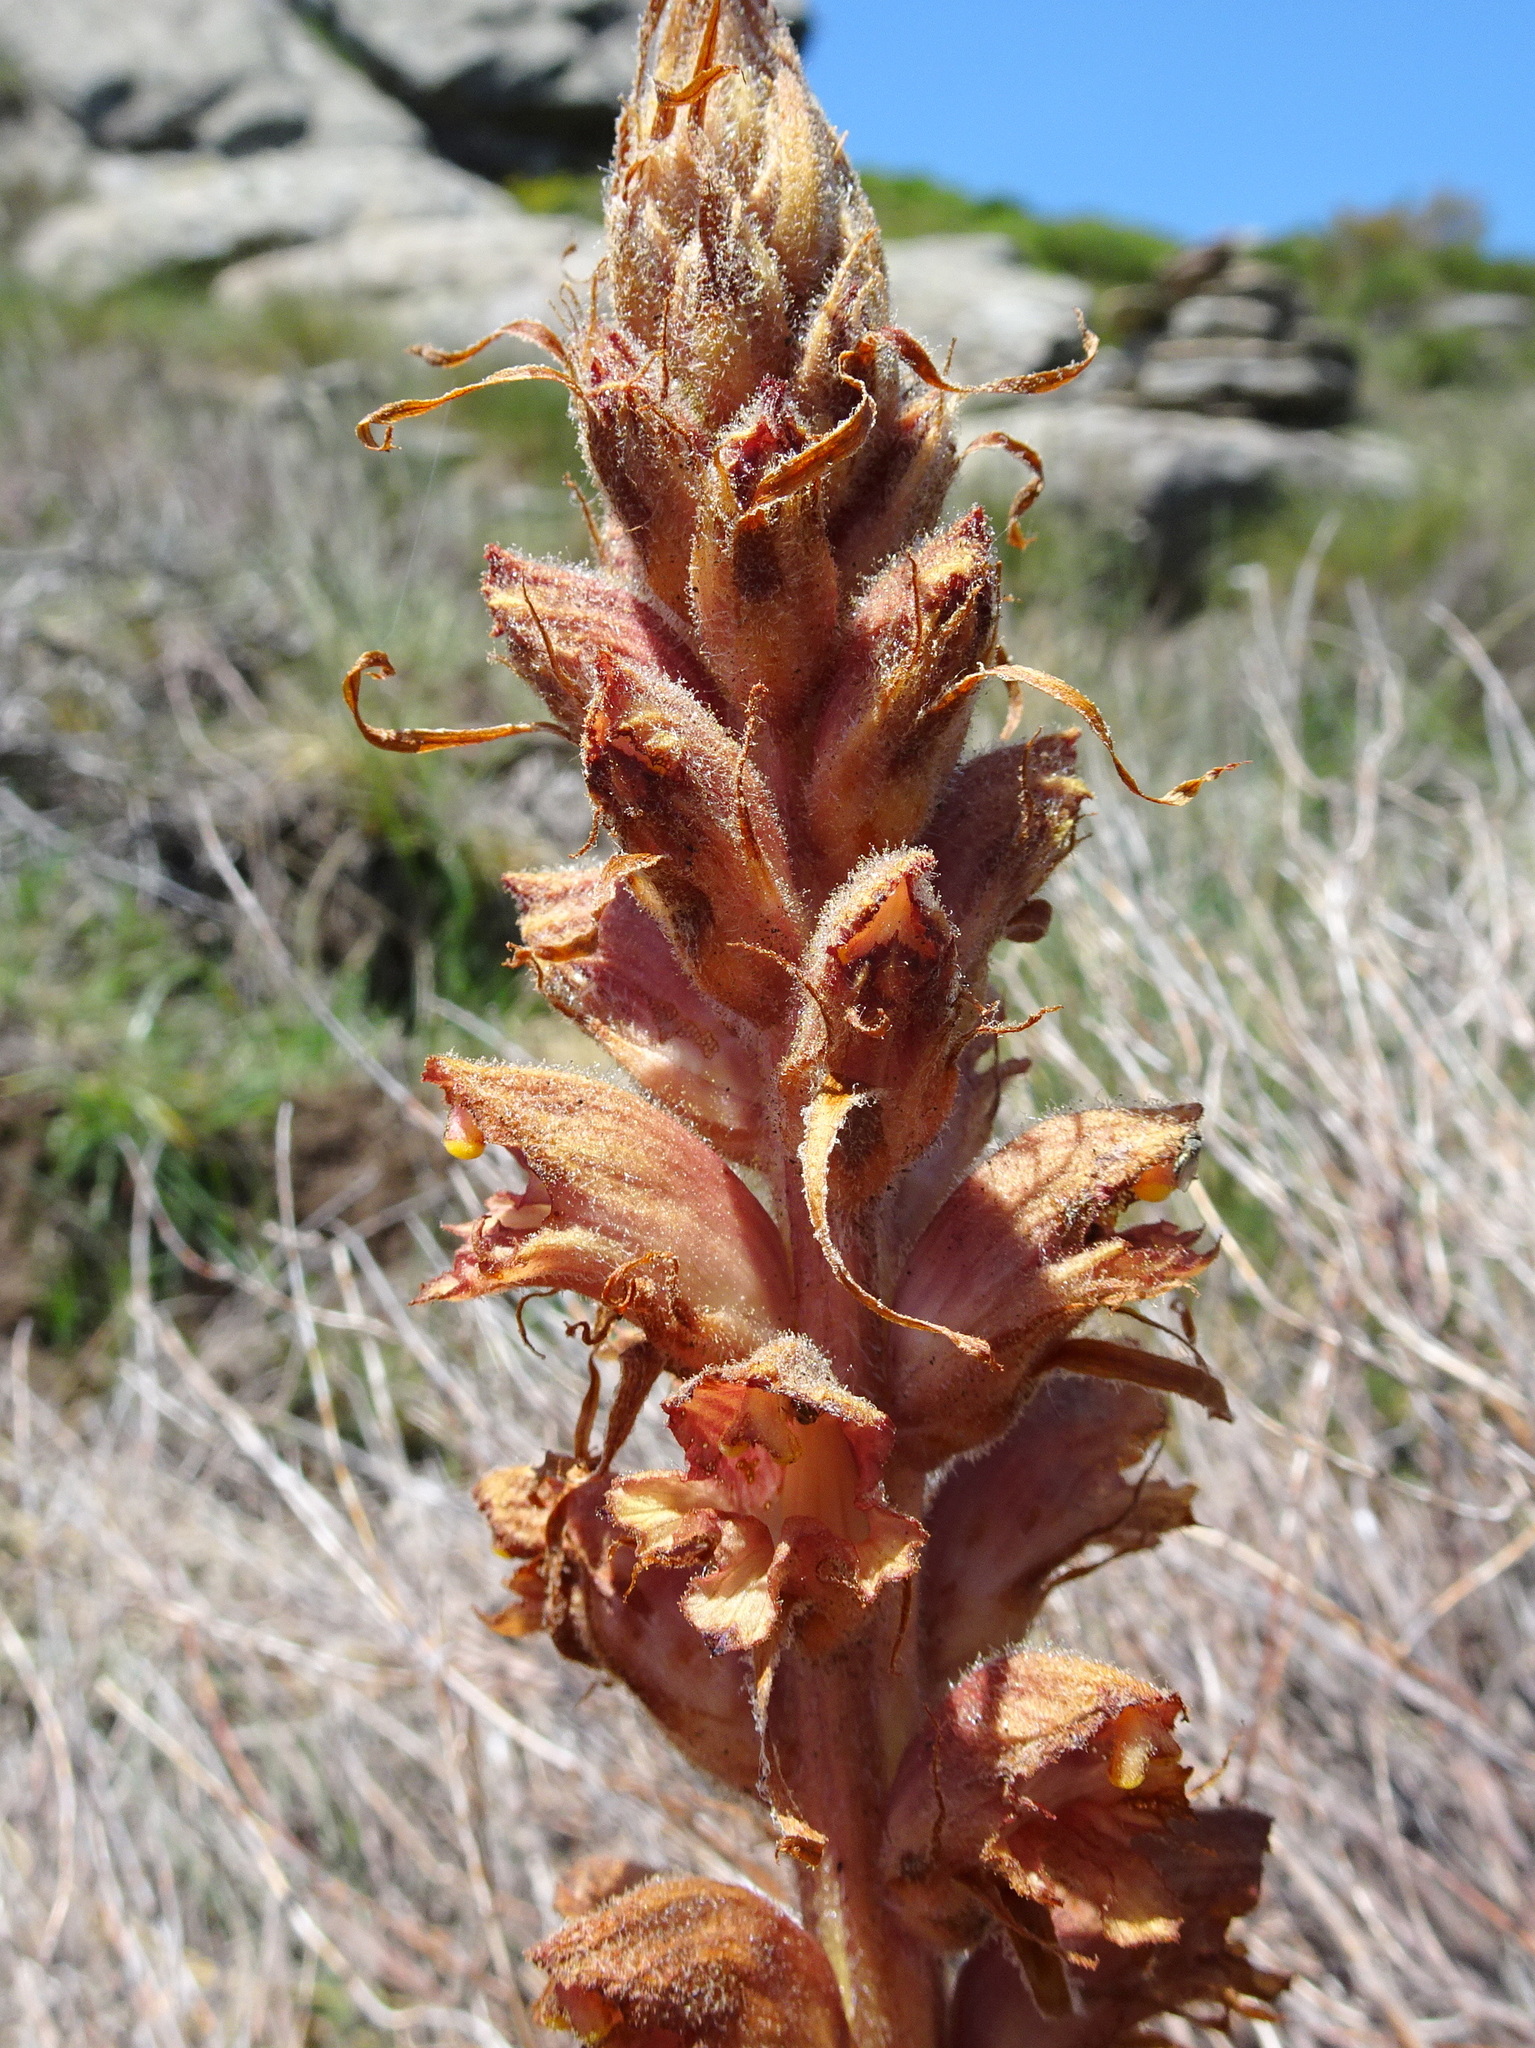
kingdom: Plantae
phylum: Tracheophyta
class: Magnoliopsida
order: Lamiales
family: Orobanchaceae
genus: Orobanche
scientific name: Orobanche rapum-genistae
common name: Greater broomrape
